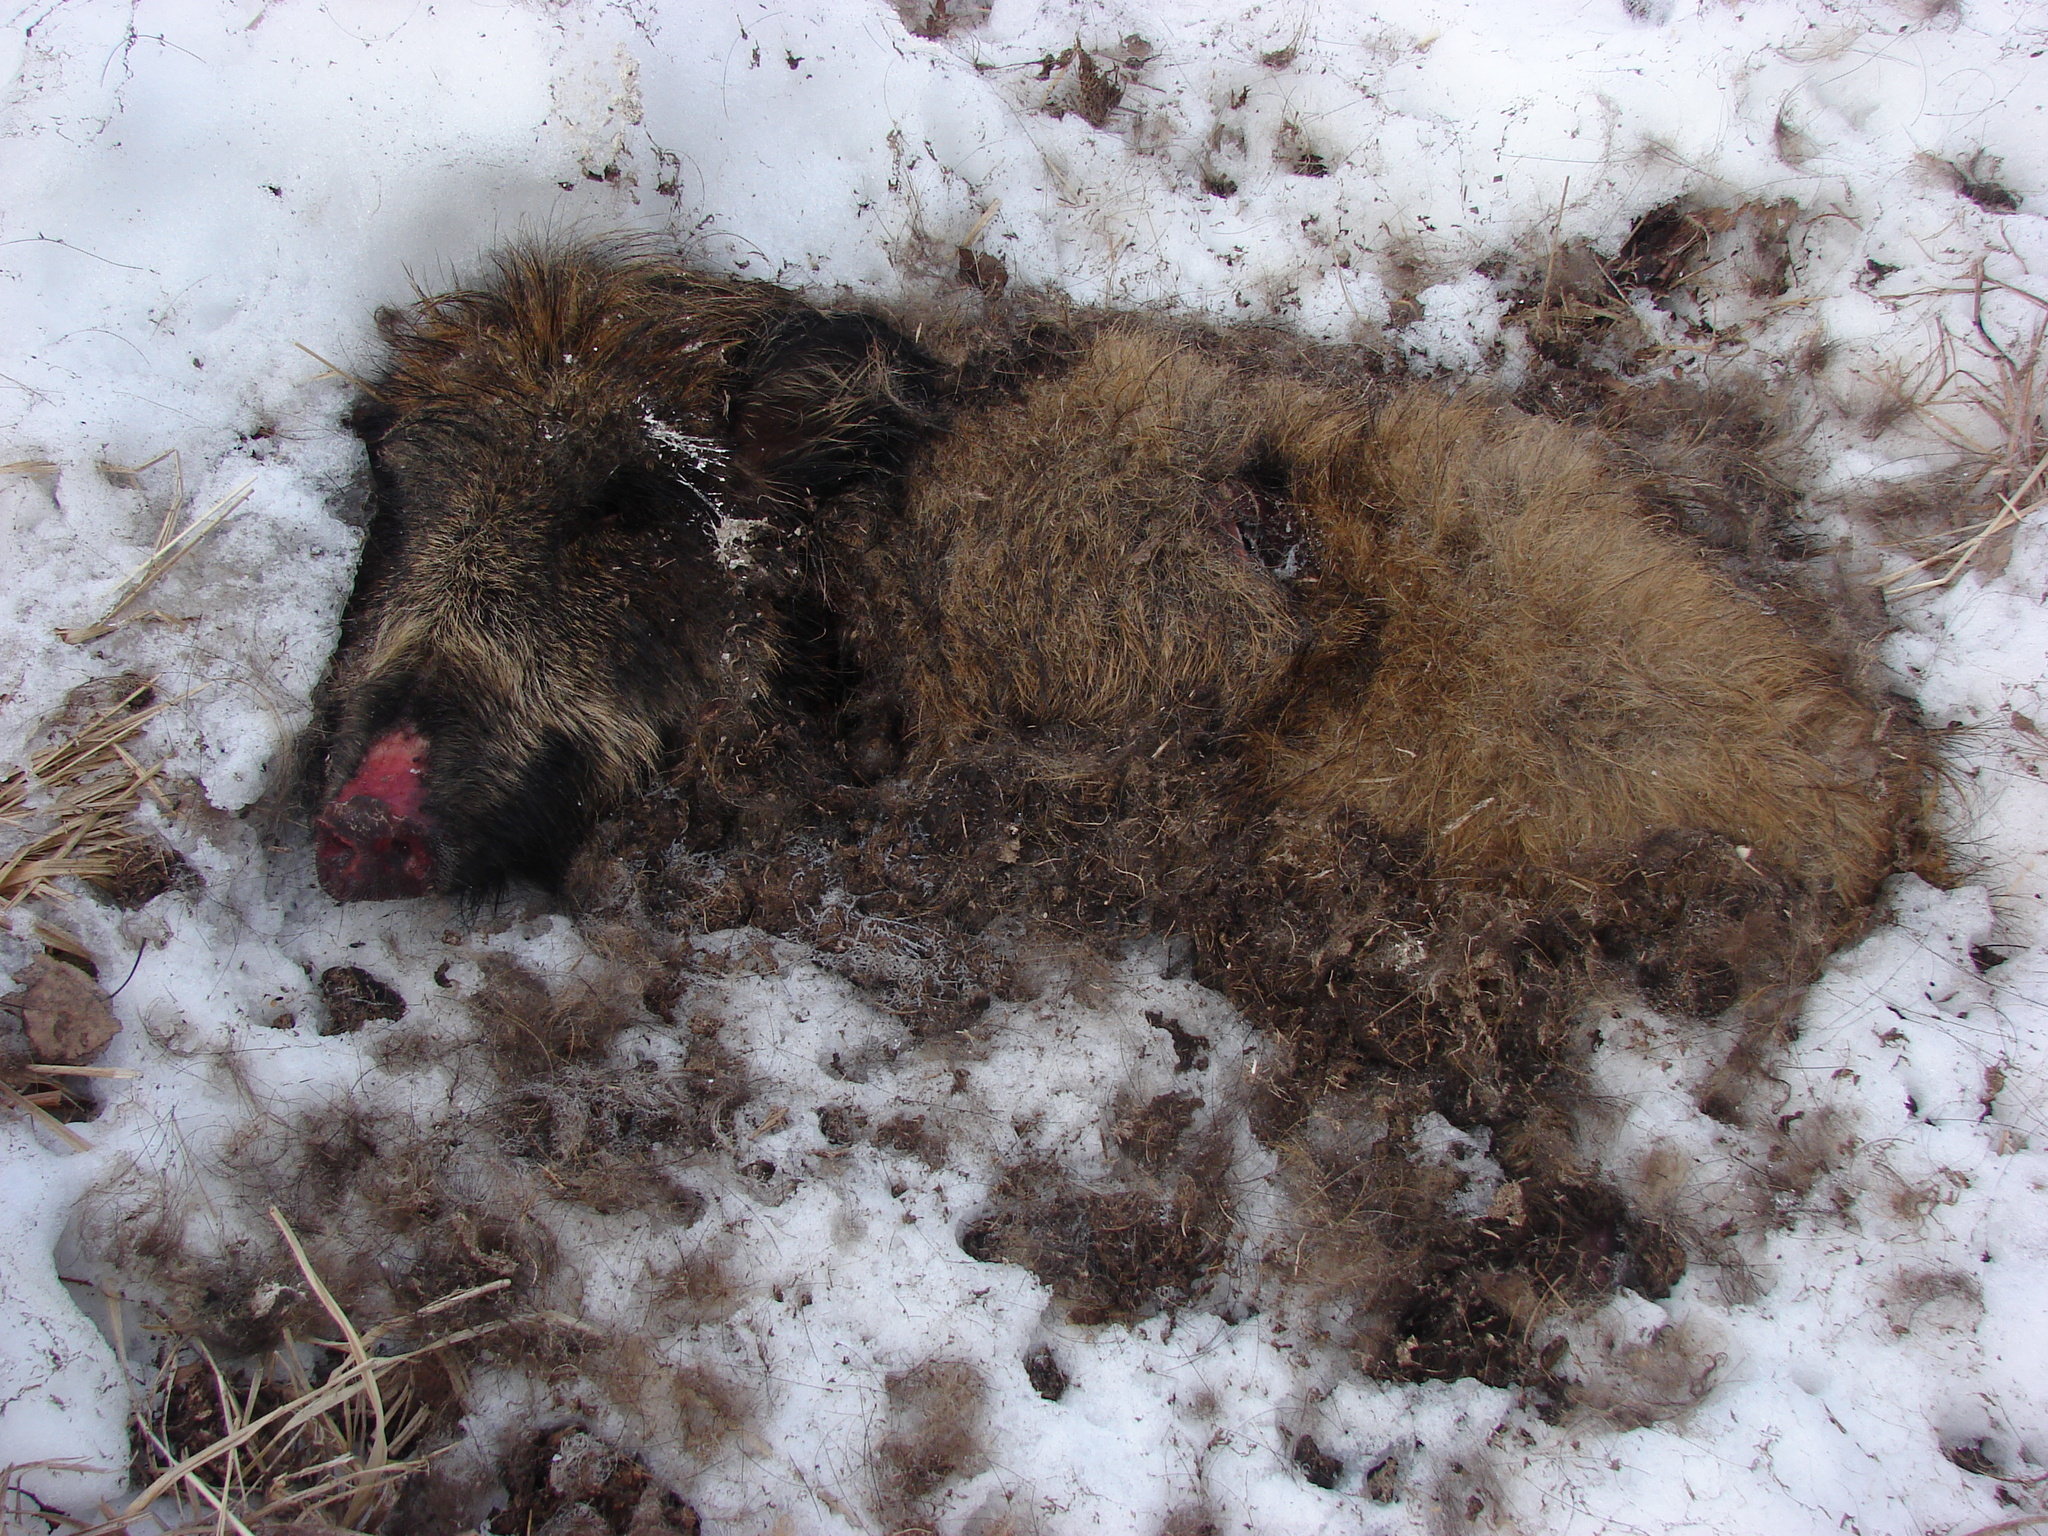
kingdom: Animalia
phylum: Chordata
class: Mammalia
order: Artiodactyla
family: Suidae
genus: Sus
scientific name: Sus scrofa
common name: Wild boar
